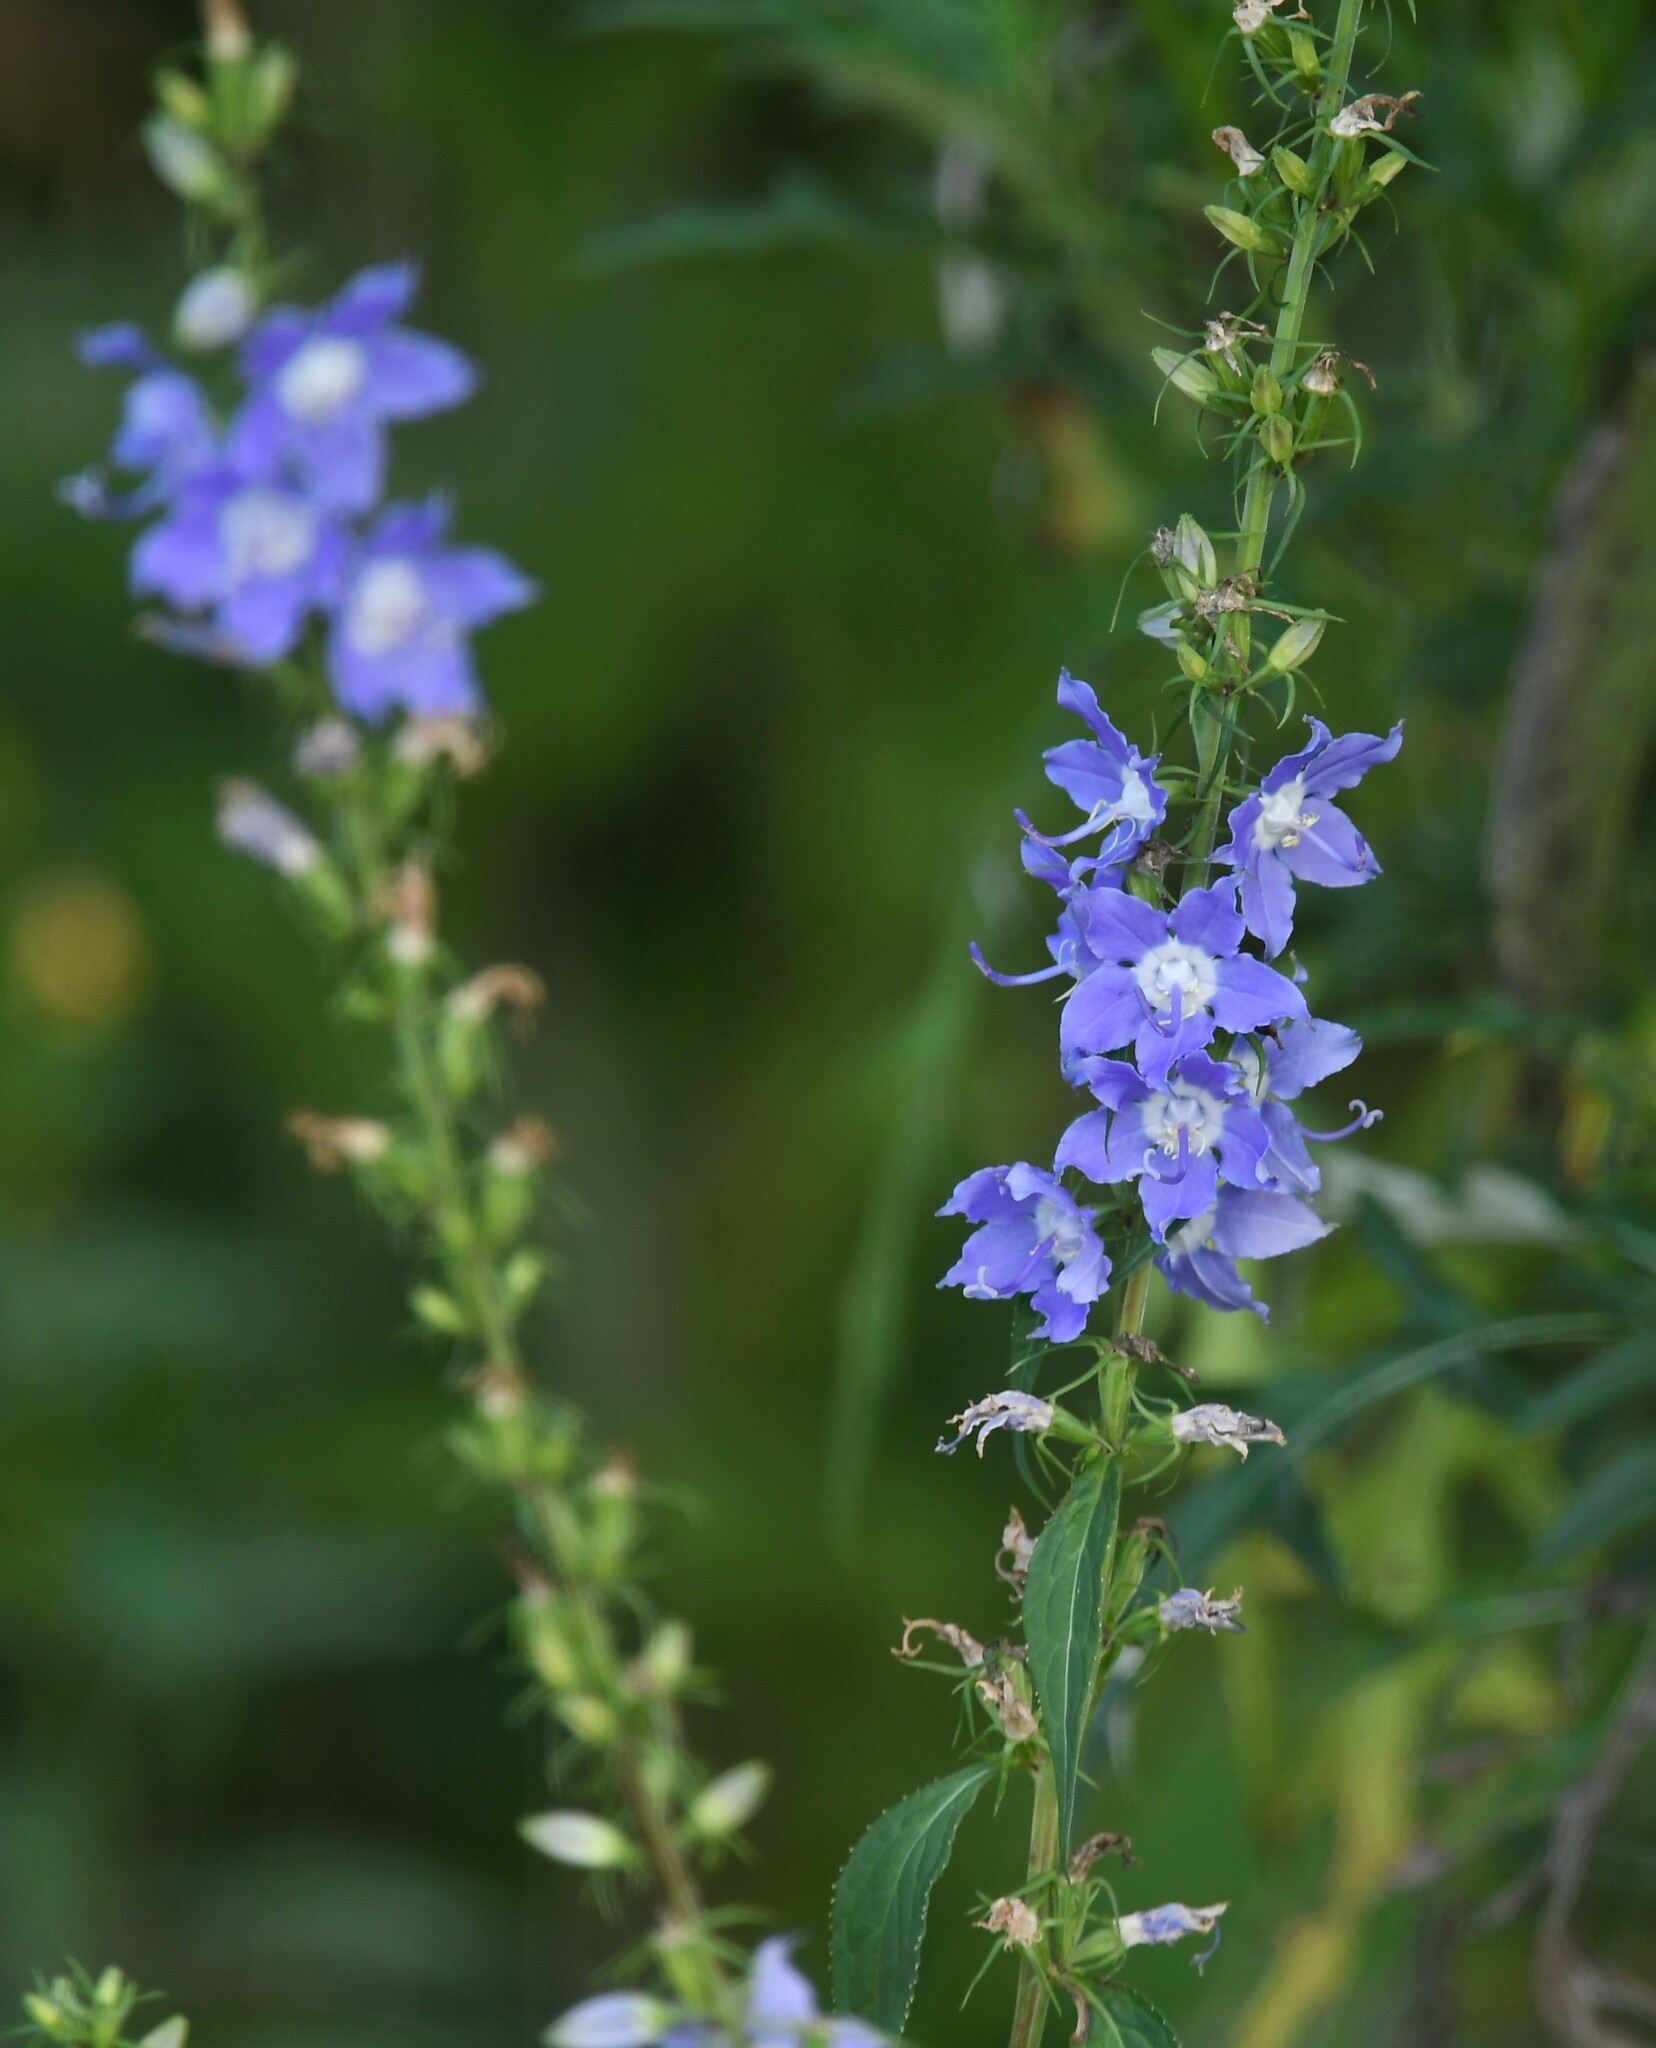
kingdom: Plantae
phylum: Tracheophyta
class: Magnoliopsida
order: Asterales
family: Campanulaceae
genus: Campanulastrum
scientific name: Campanulastrum americanum
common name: American bellflower
